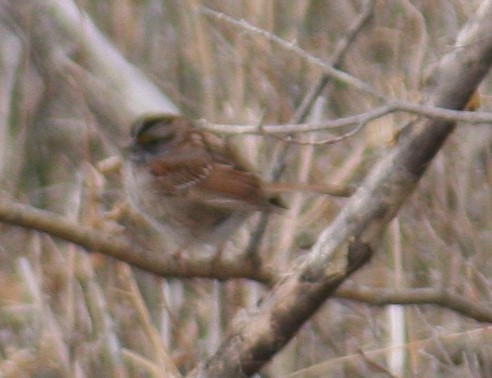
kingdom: Animalia
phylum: Chordata
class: Aves
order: Passeriformes
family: Passerellidae
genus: Zonotrichia
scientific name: Zonotrichia albicollis
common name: White-throated sparrow
